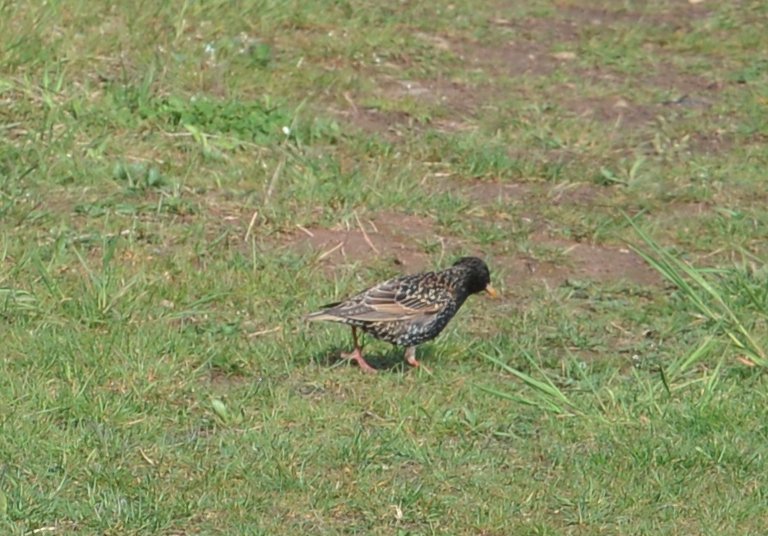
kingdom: Animalia
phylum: Chordata
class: Aves
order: Passeriformes
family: Sturnidae
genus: Sturnus
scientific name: Sturnus vulgaris
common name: Common starling
